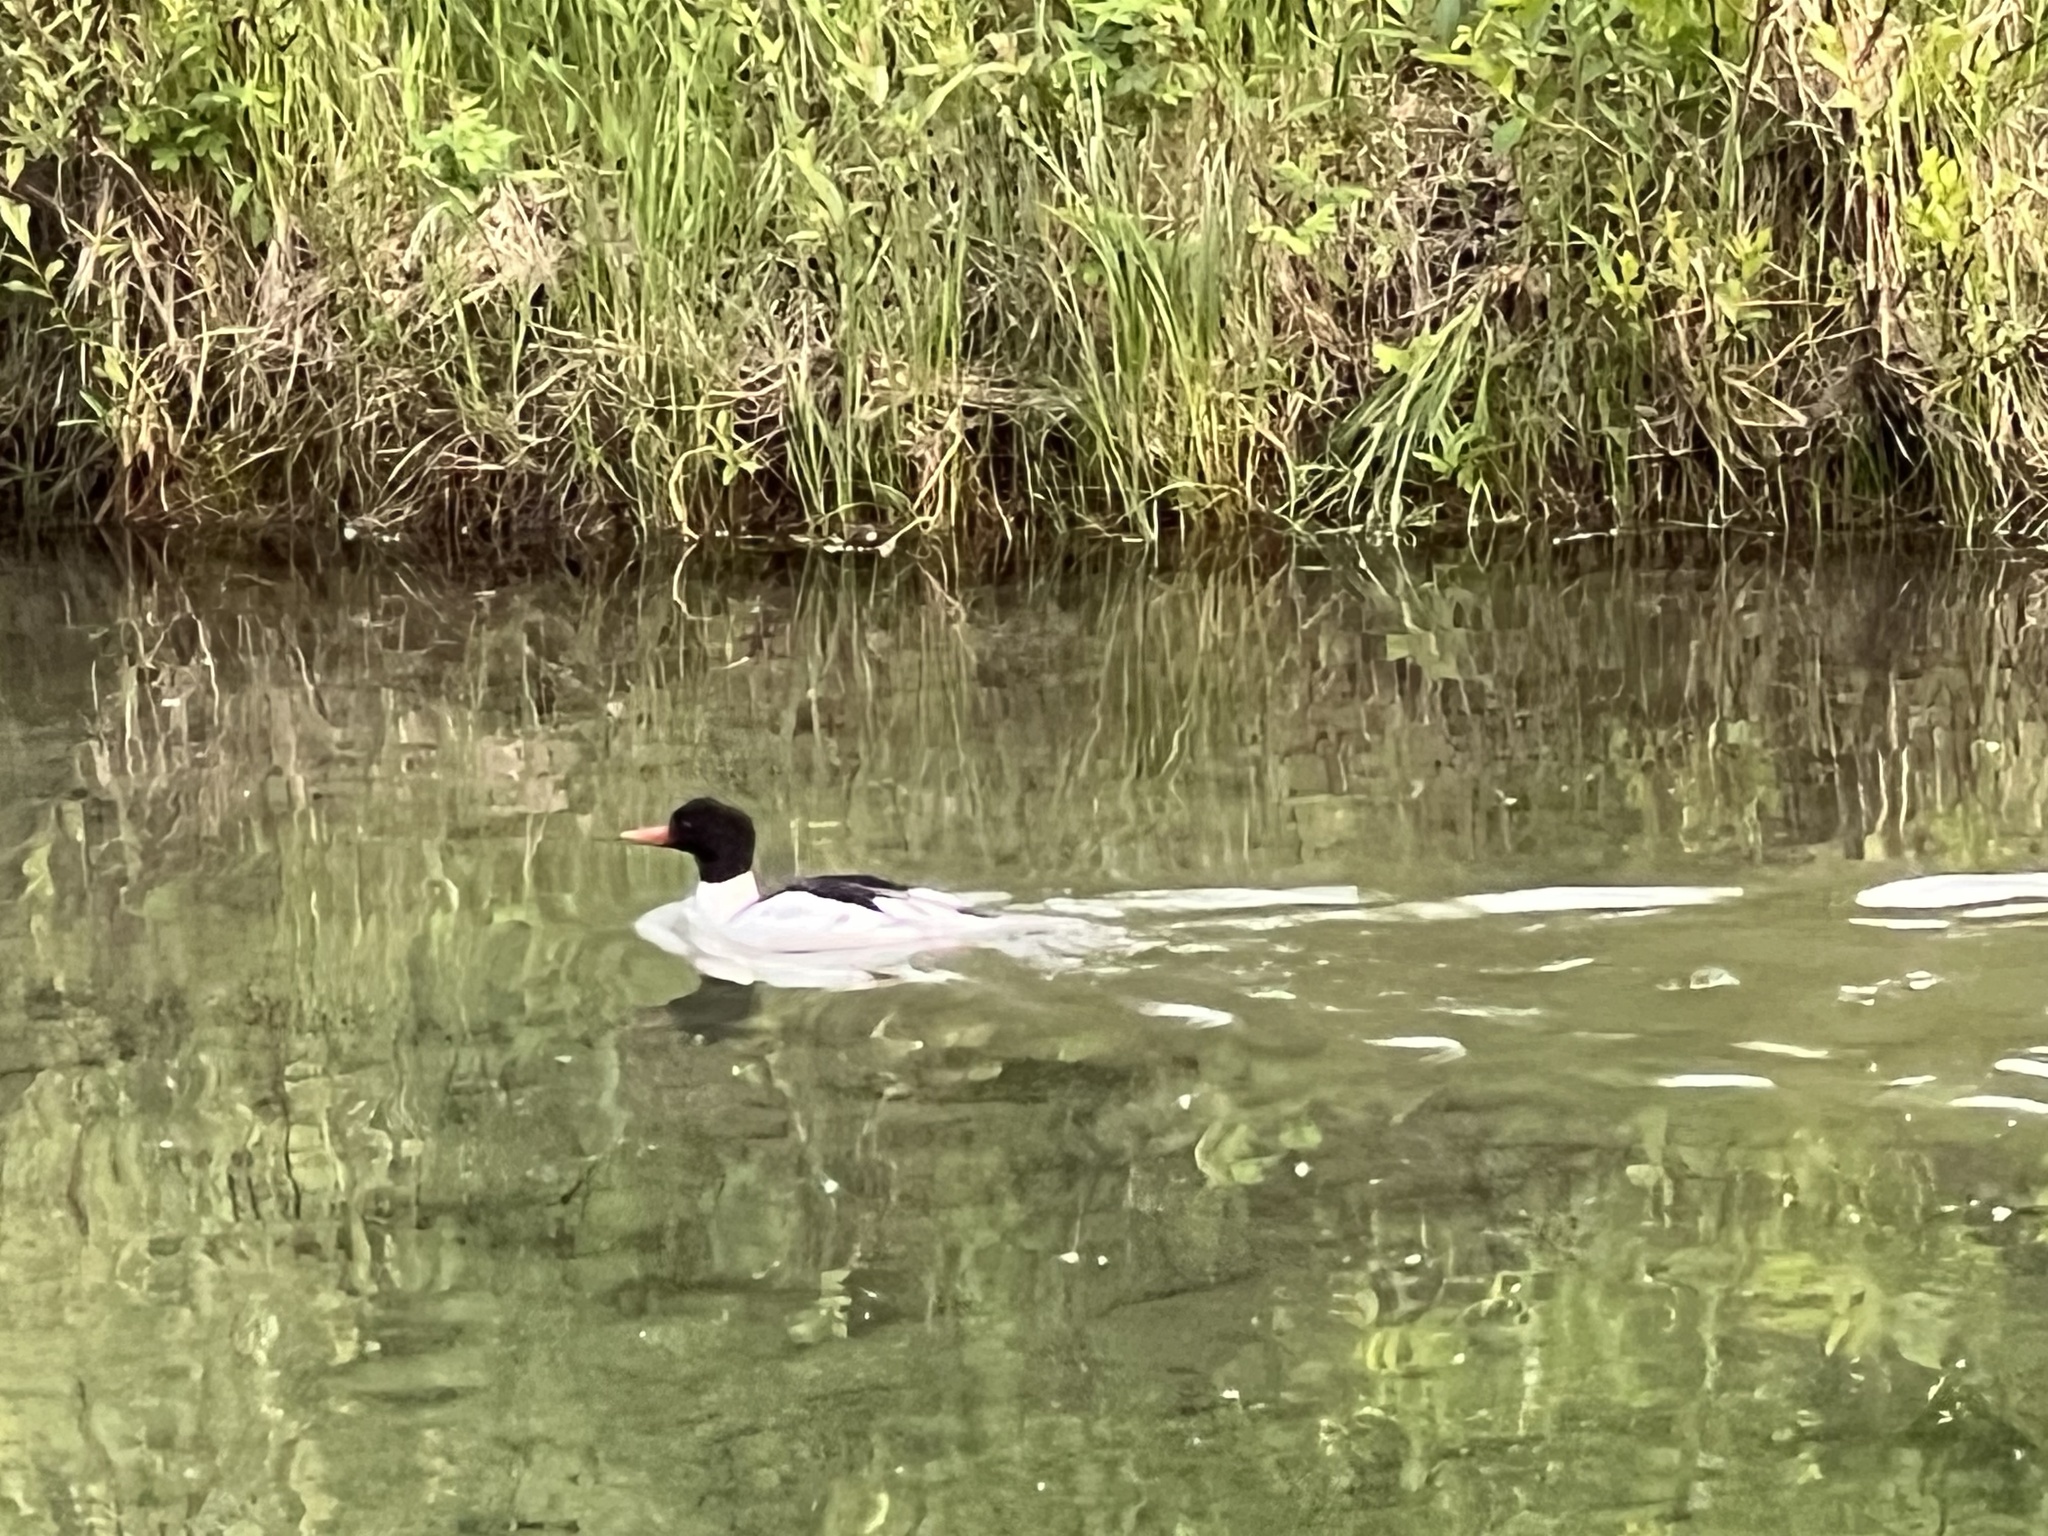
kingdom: Animalia
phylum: Chordata
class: Aves
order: Anseriformes
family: Anatidae
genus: Mergus
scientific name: Mergus merganser
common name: Common merganser
